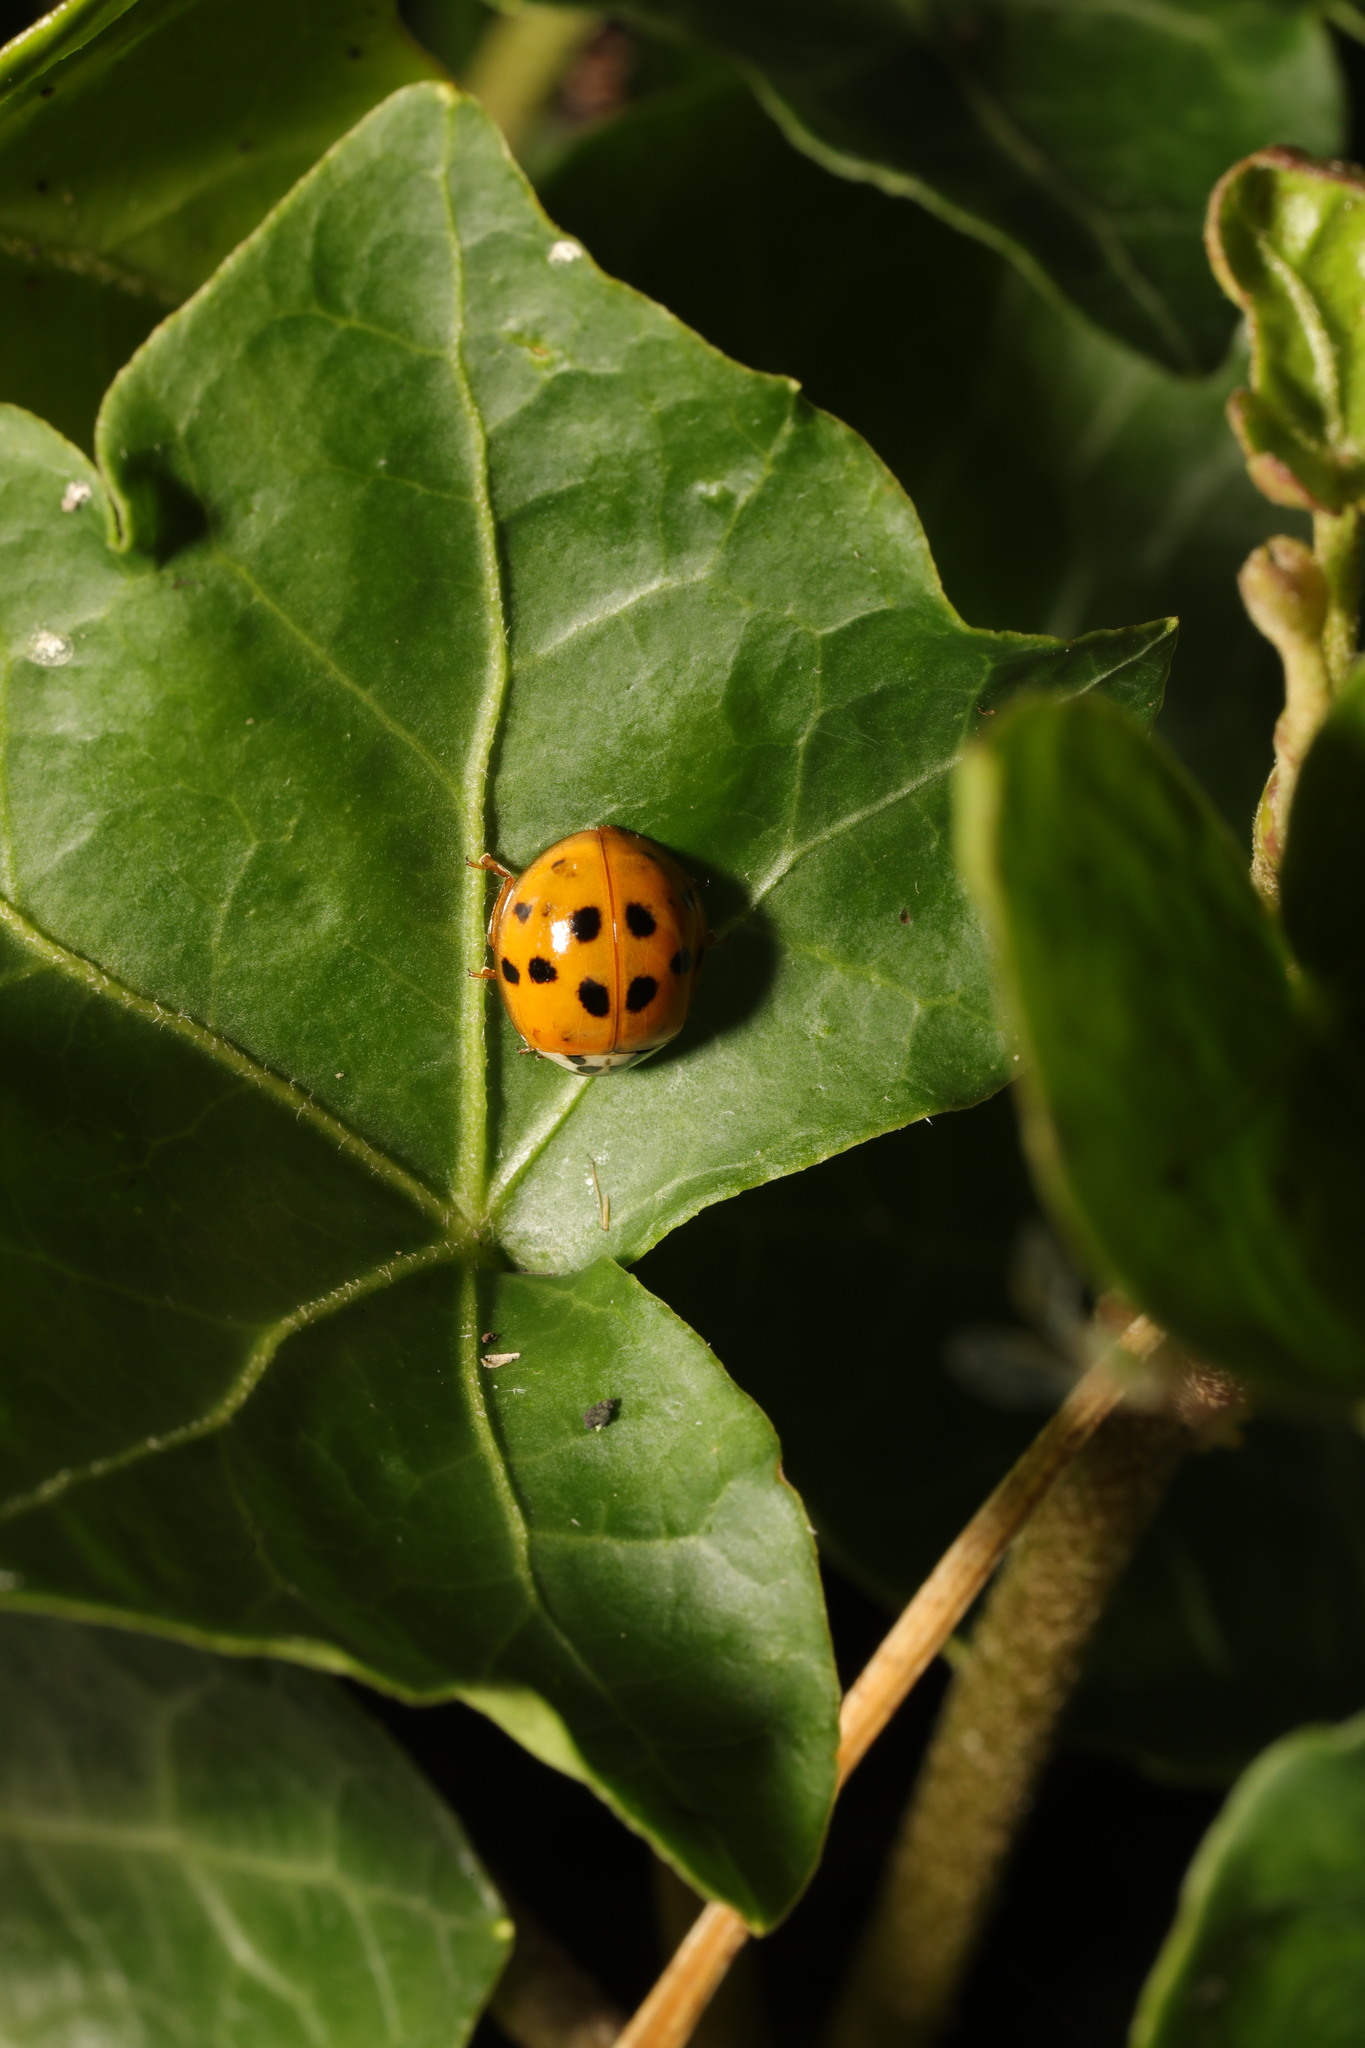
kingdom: Animalia
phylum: Arthropoda
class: Insecta
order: Coleoptera
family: Coccinellidae
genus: Harmonia
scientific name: Harmonia axyridis
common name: Harlequin ladybird
